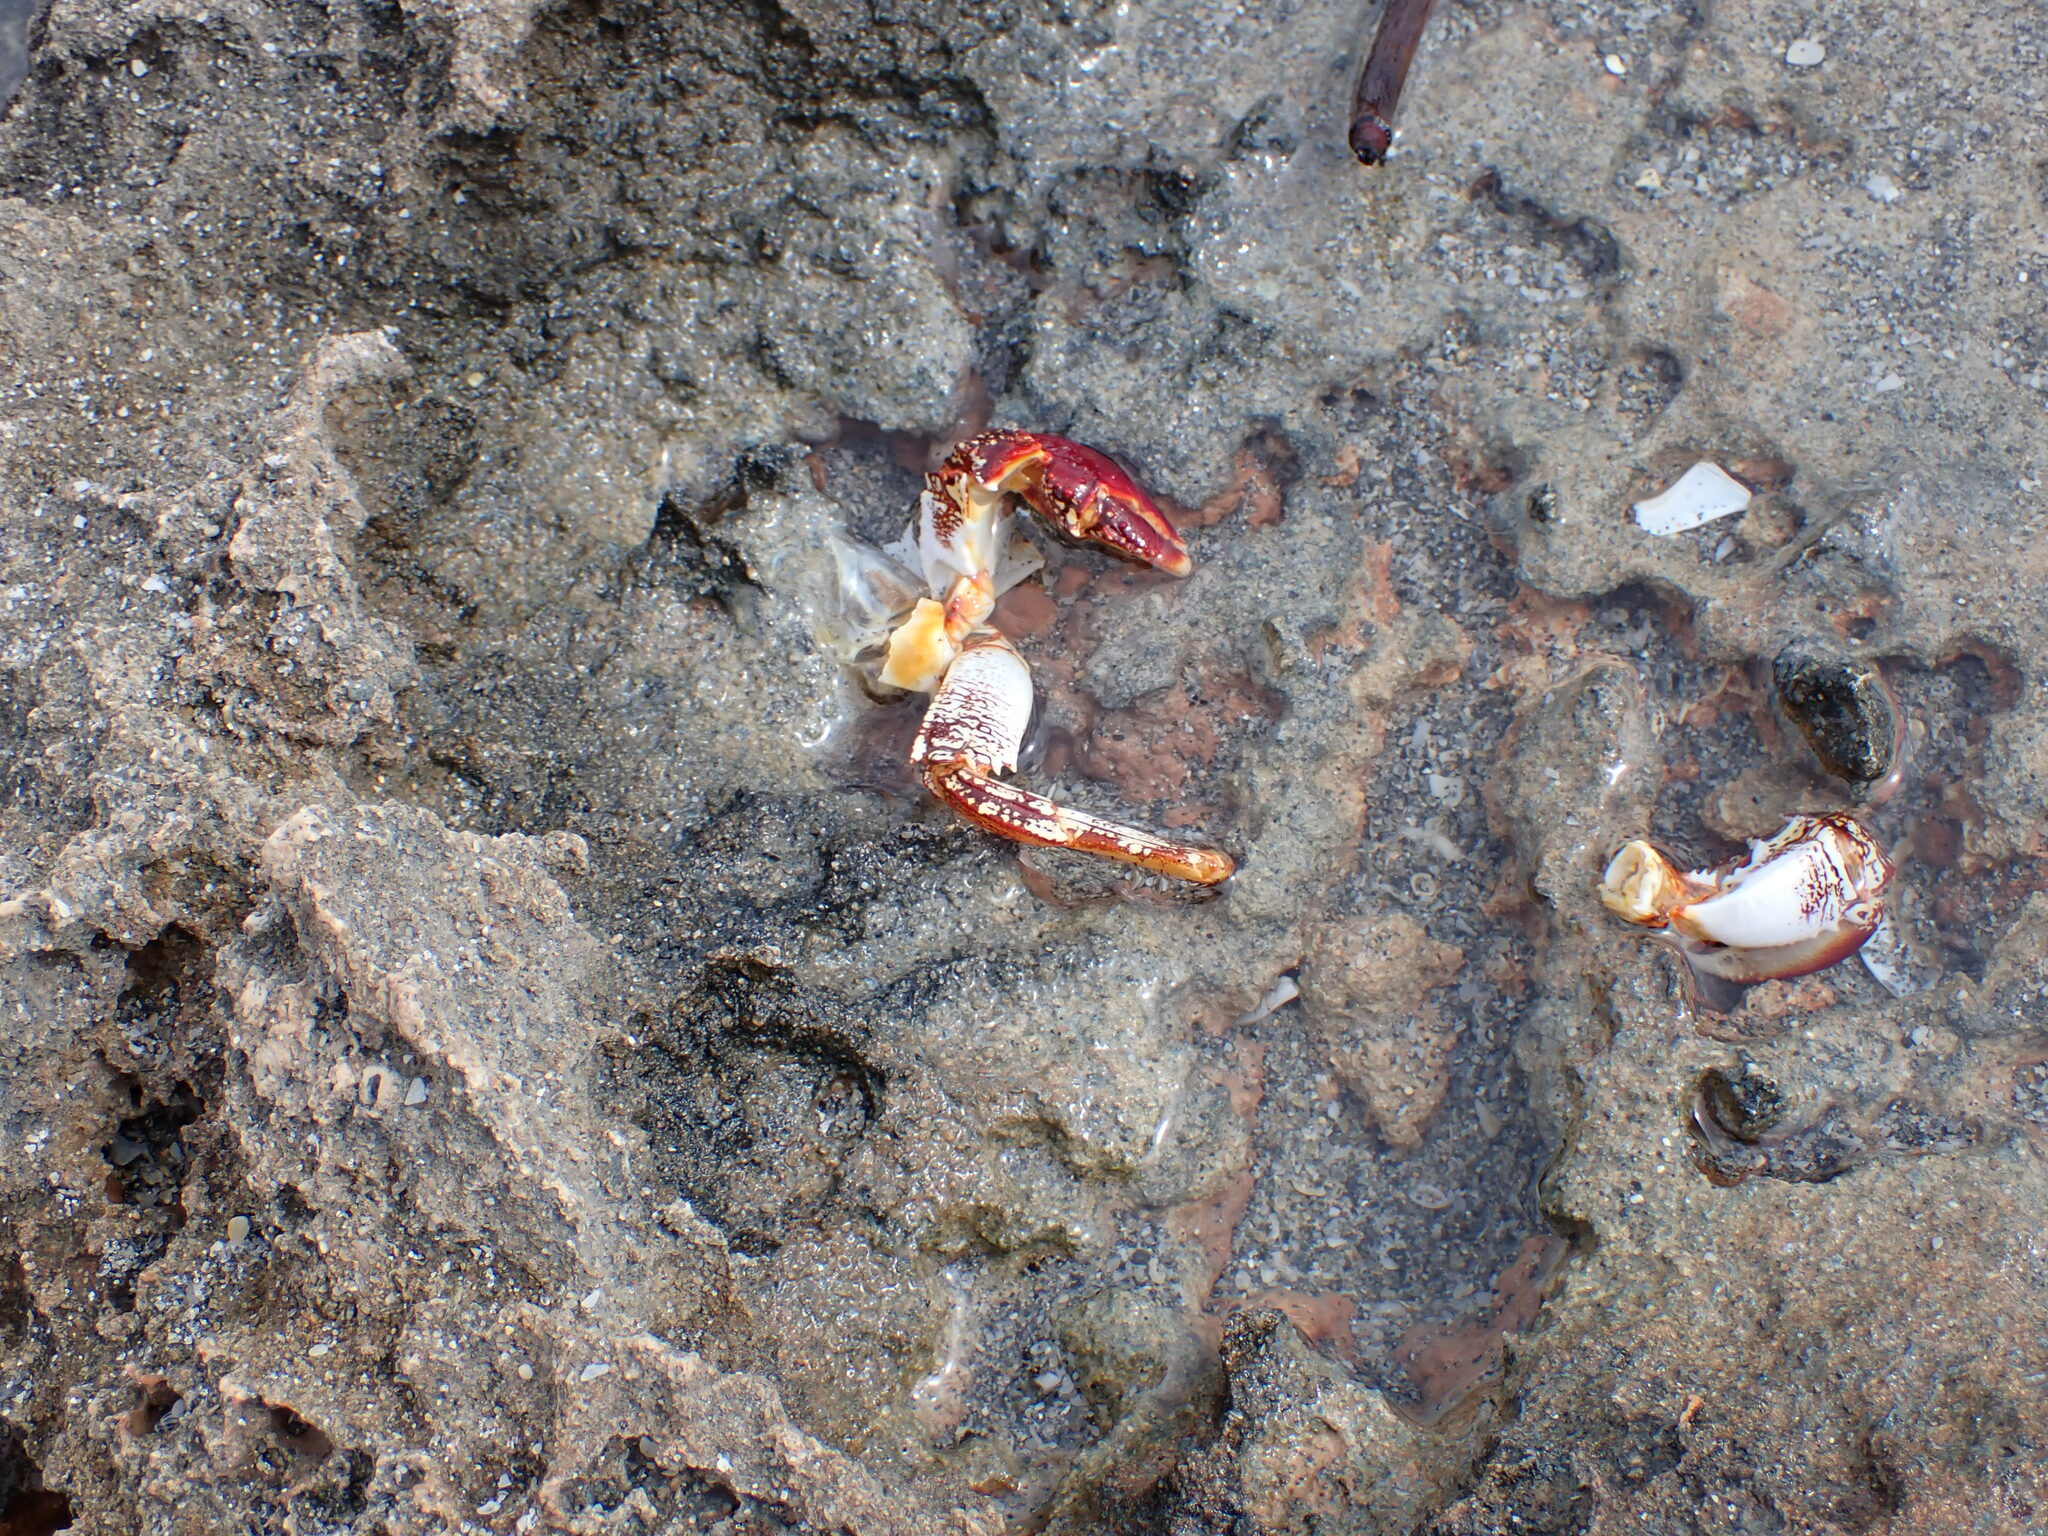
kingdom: Animalia
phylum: Arthropoda
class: Malacostraca
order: Decapoda
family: Grapsidae
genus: Grapsus
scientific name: Grapsus grapsus
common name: Sally lightfoot
